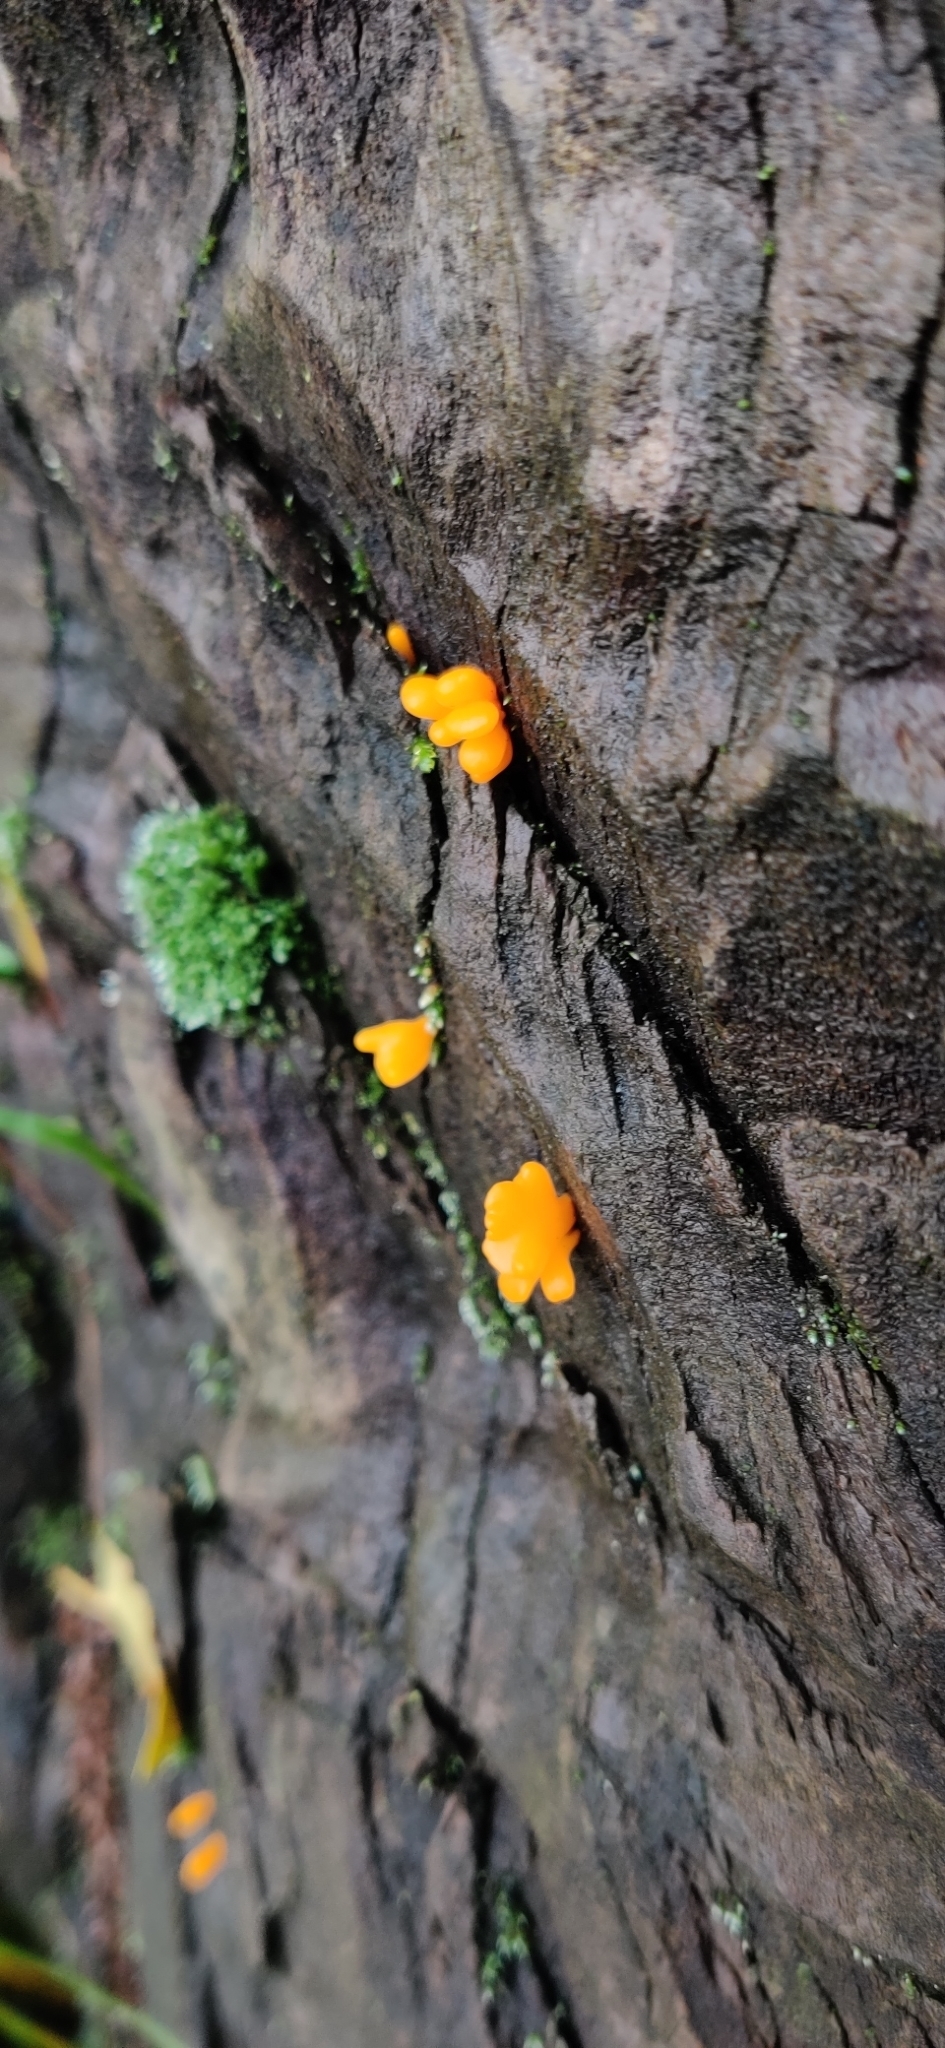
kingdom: Fungi
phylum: Basidiomycota
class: Dacrymycetes
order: Dacrymycetales
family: Dacrymycetaceae
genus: Dacrymyces
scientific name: Dacrymyces spathularius
